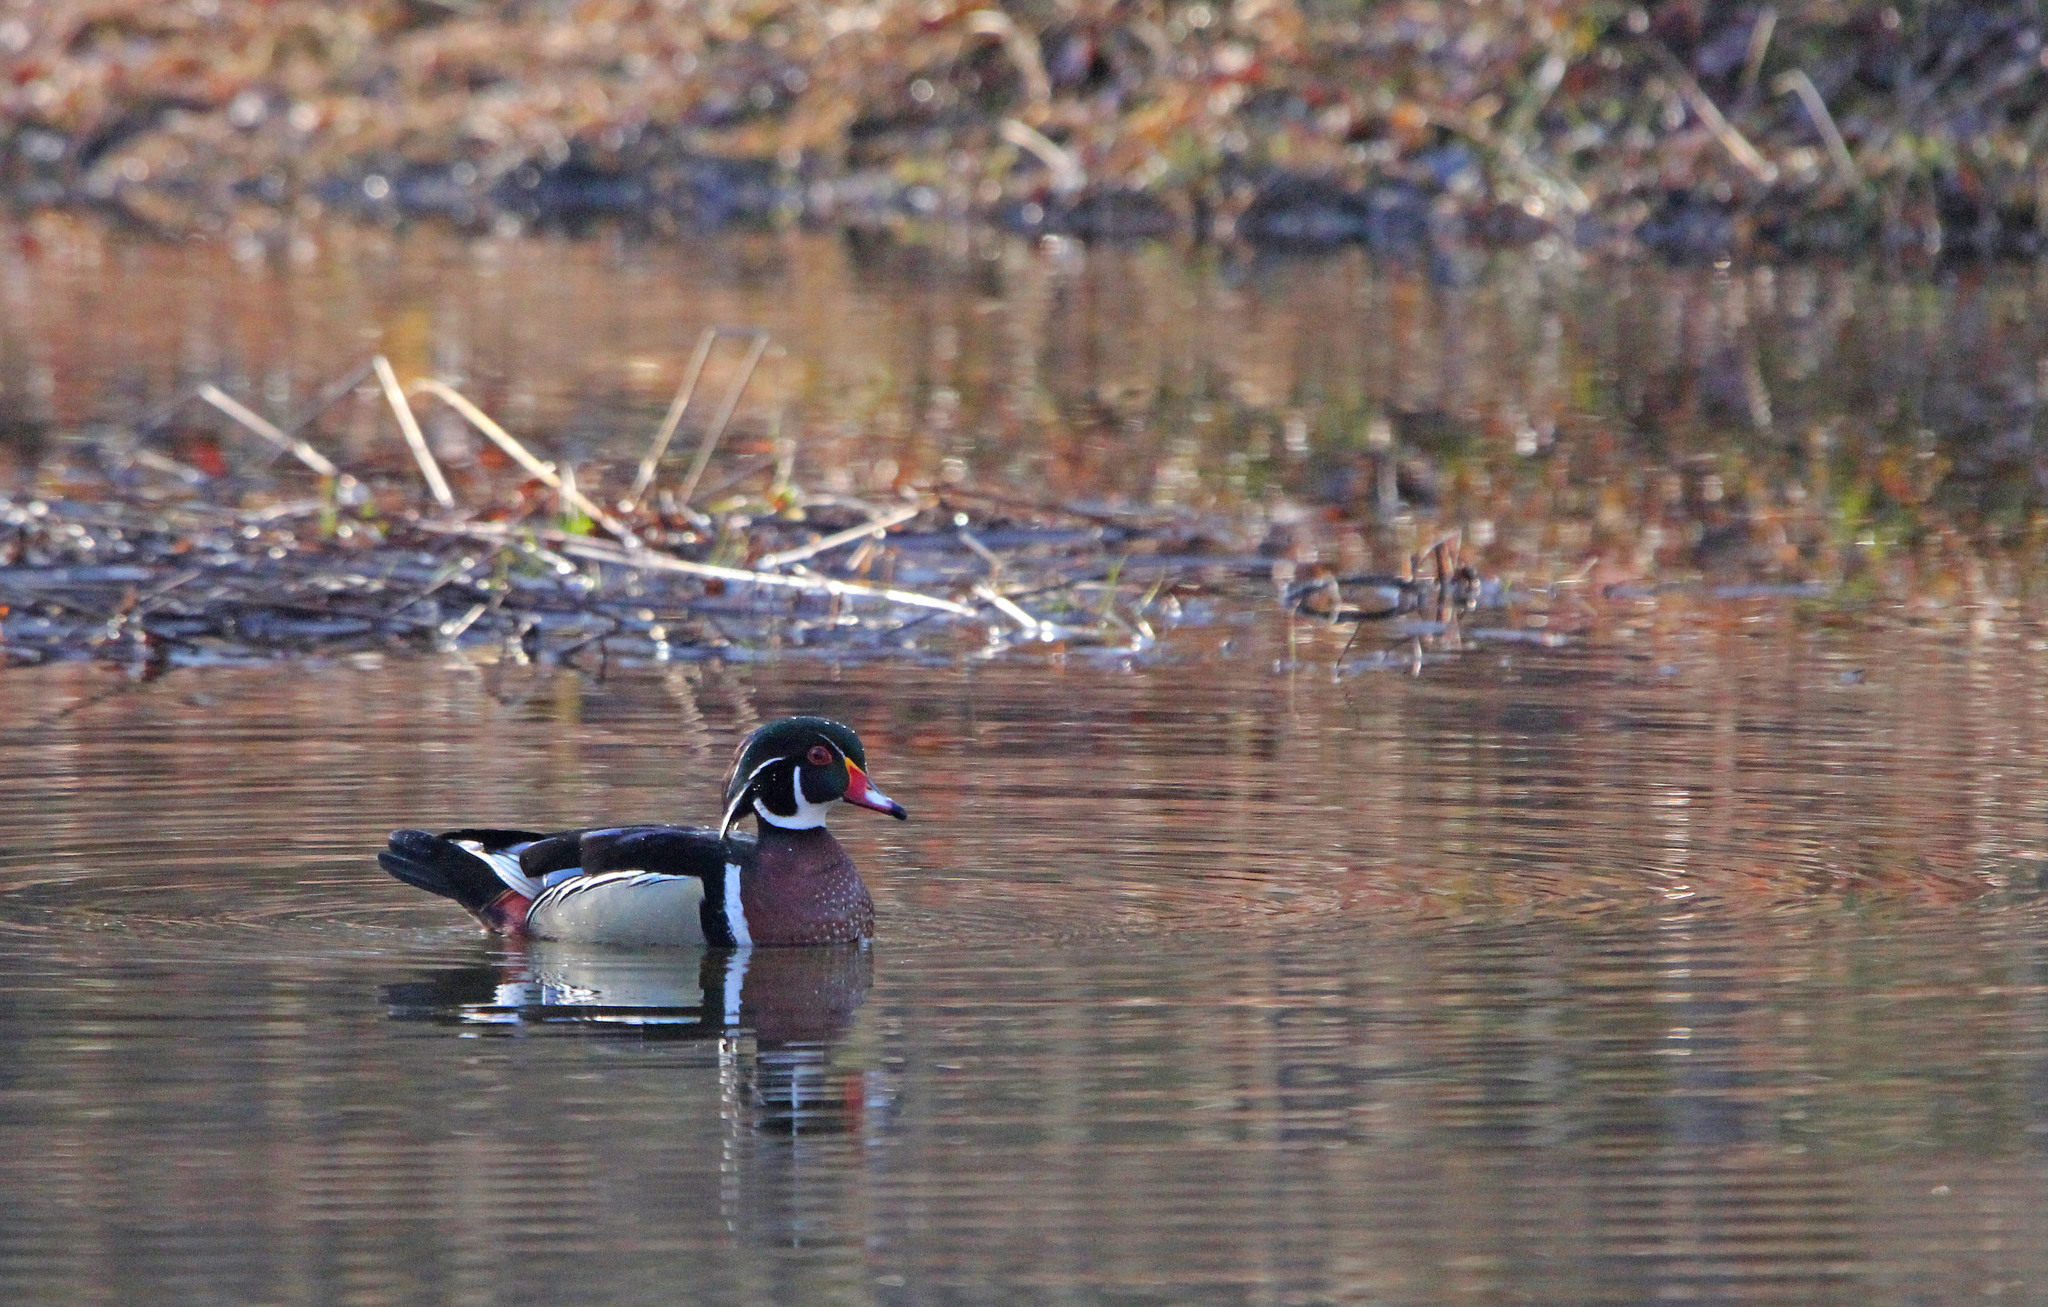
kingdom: Animalia
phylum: Chordata
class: Aves
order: Anseriformes
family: Anatidae
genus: Aix
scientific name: Aix sponsa
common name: Wood duck
